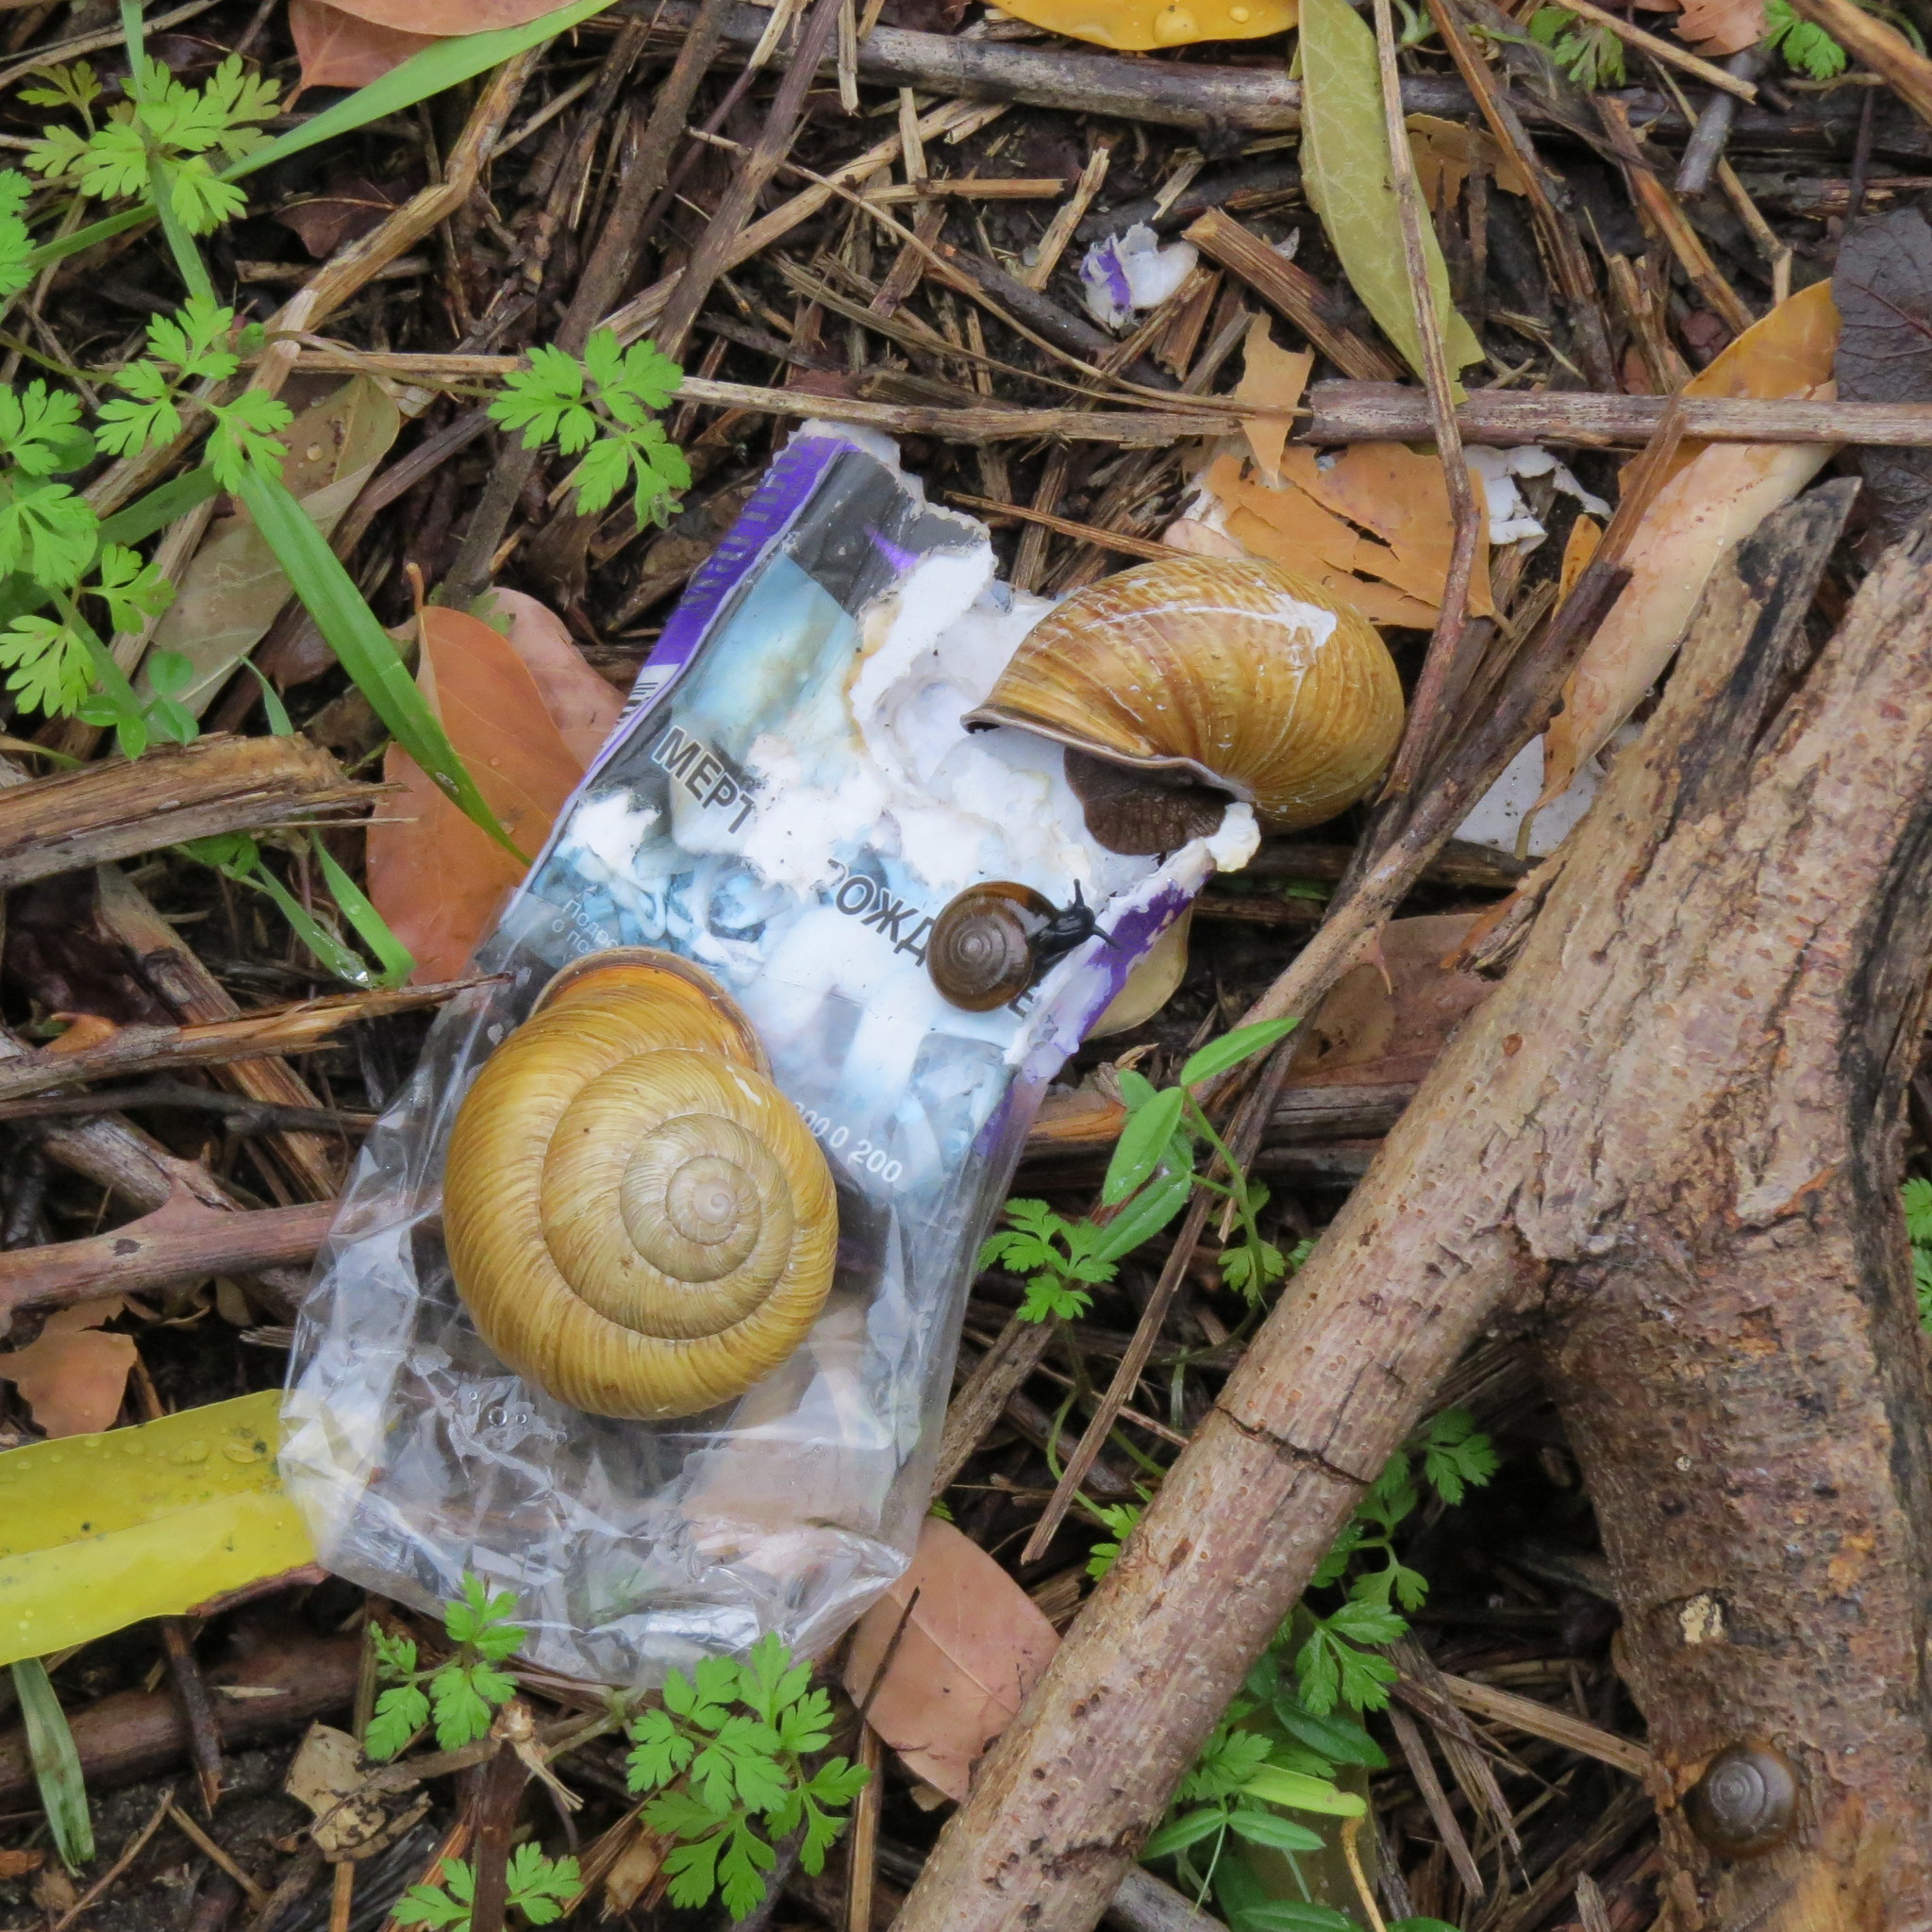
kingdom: Animalia
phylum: Mollusca
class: Gastropoda
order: Stylommatophora
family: Helicidae
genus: Caucasotachea
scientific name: Caucasotachea atrolabiata
